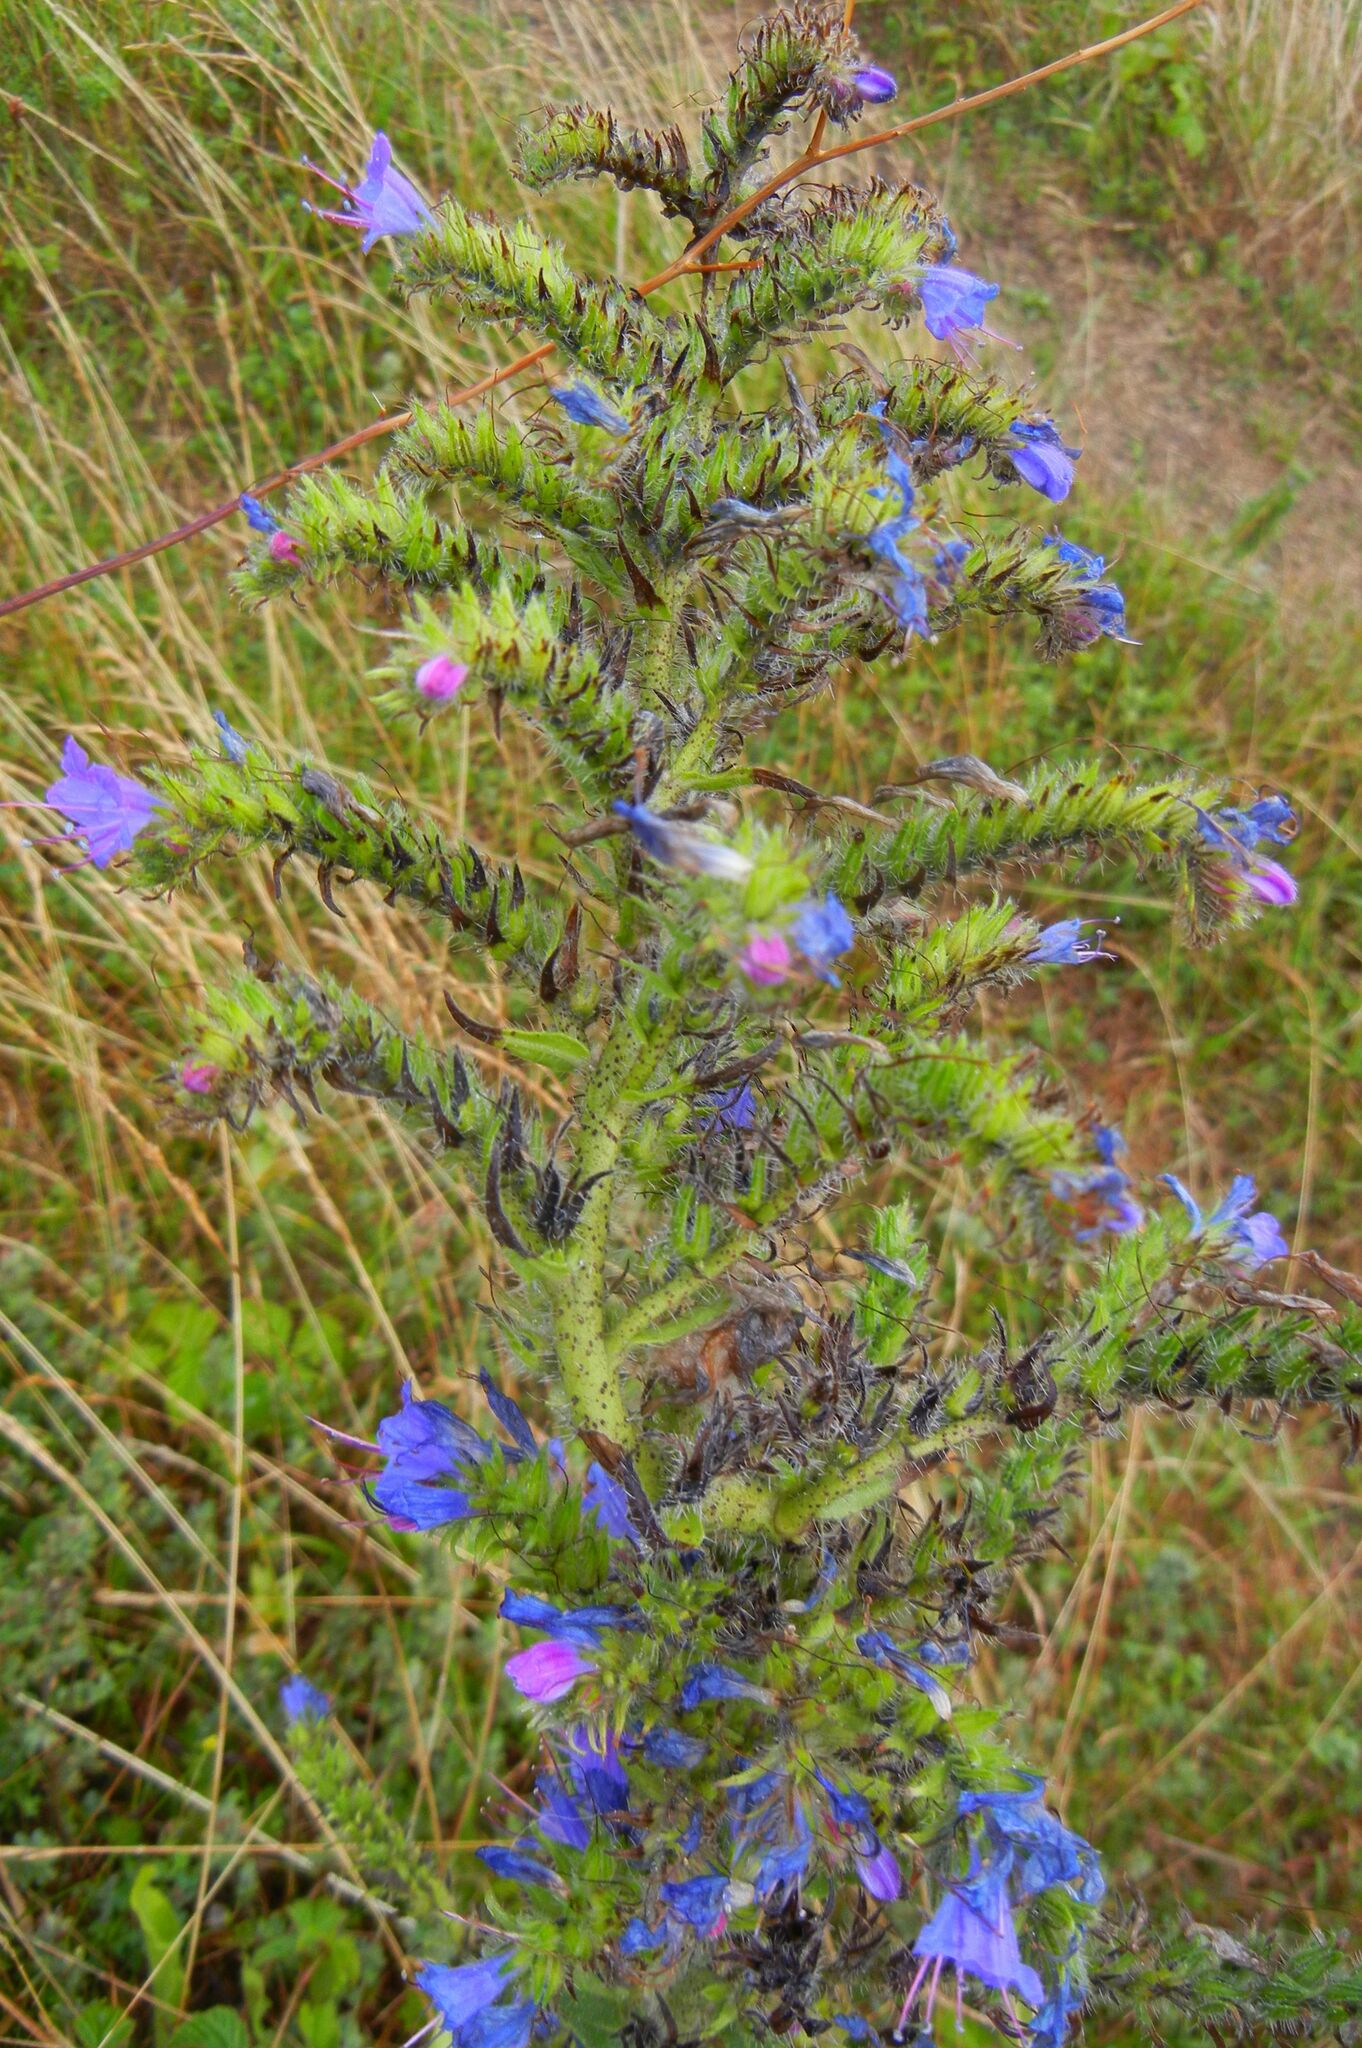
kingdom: Plantae
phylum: Tracheophyta
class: Magnoliopsida
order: Boraginales
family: Boraginaceae
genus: Echium
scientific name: Echium vulgare
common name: Common viper's bugloss
